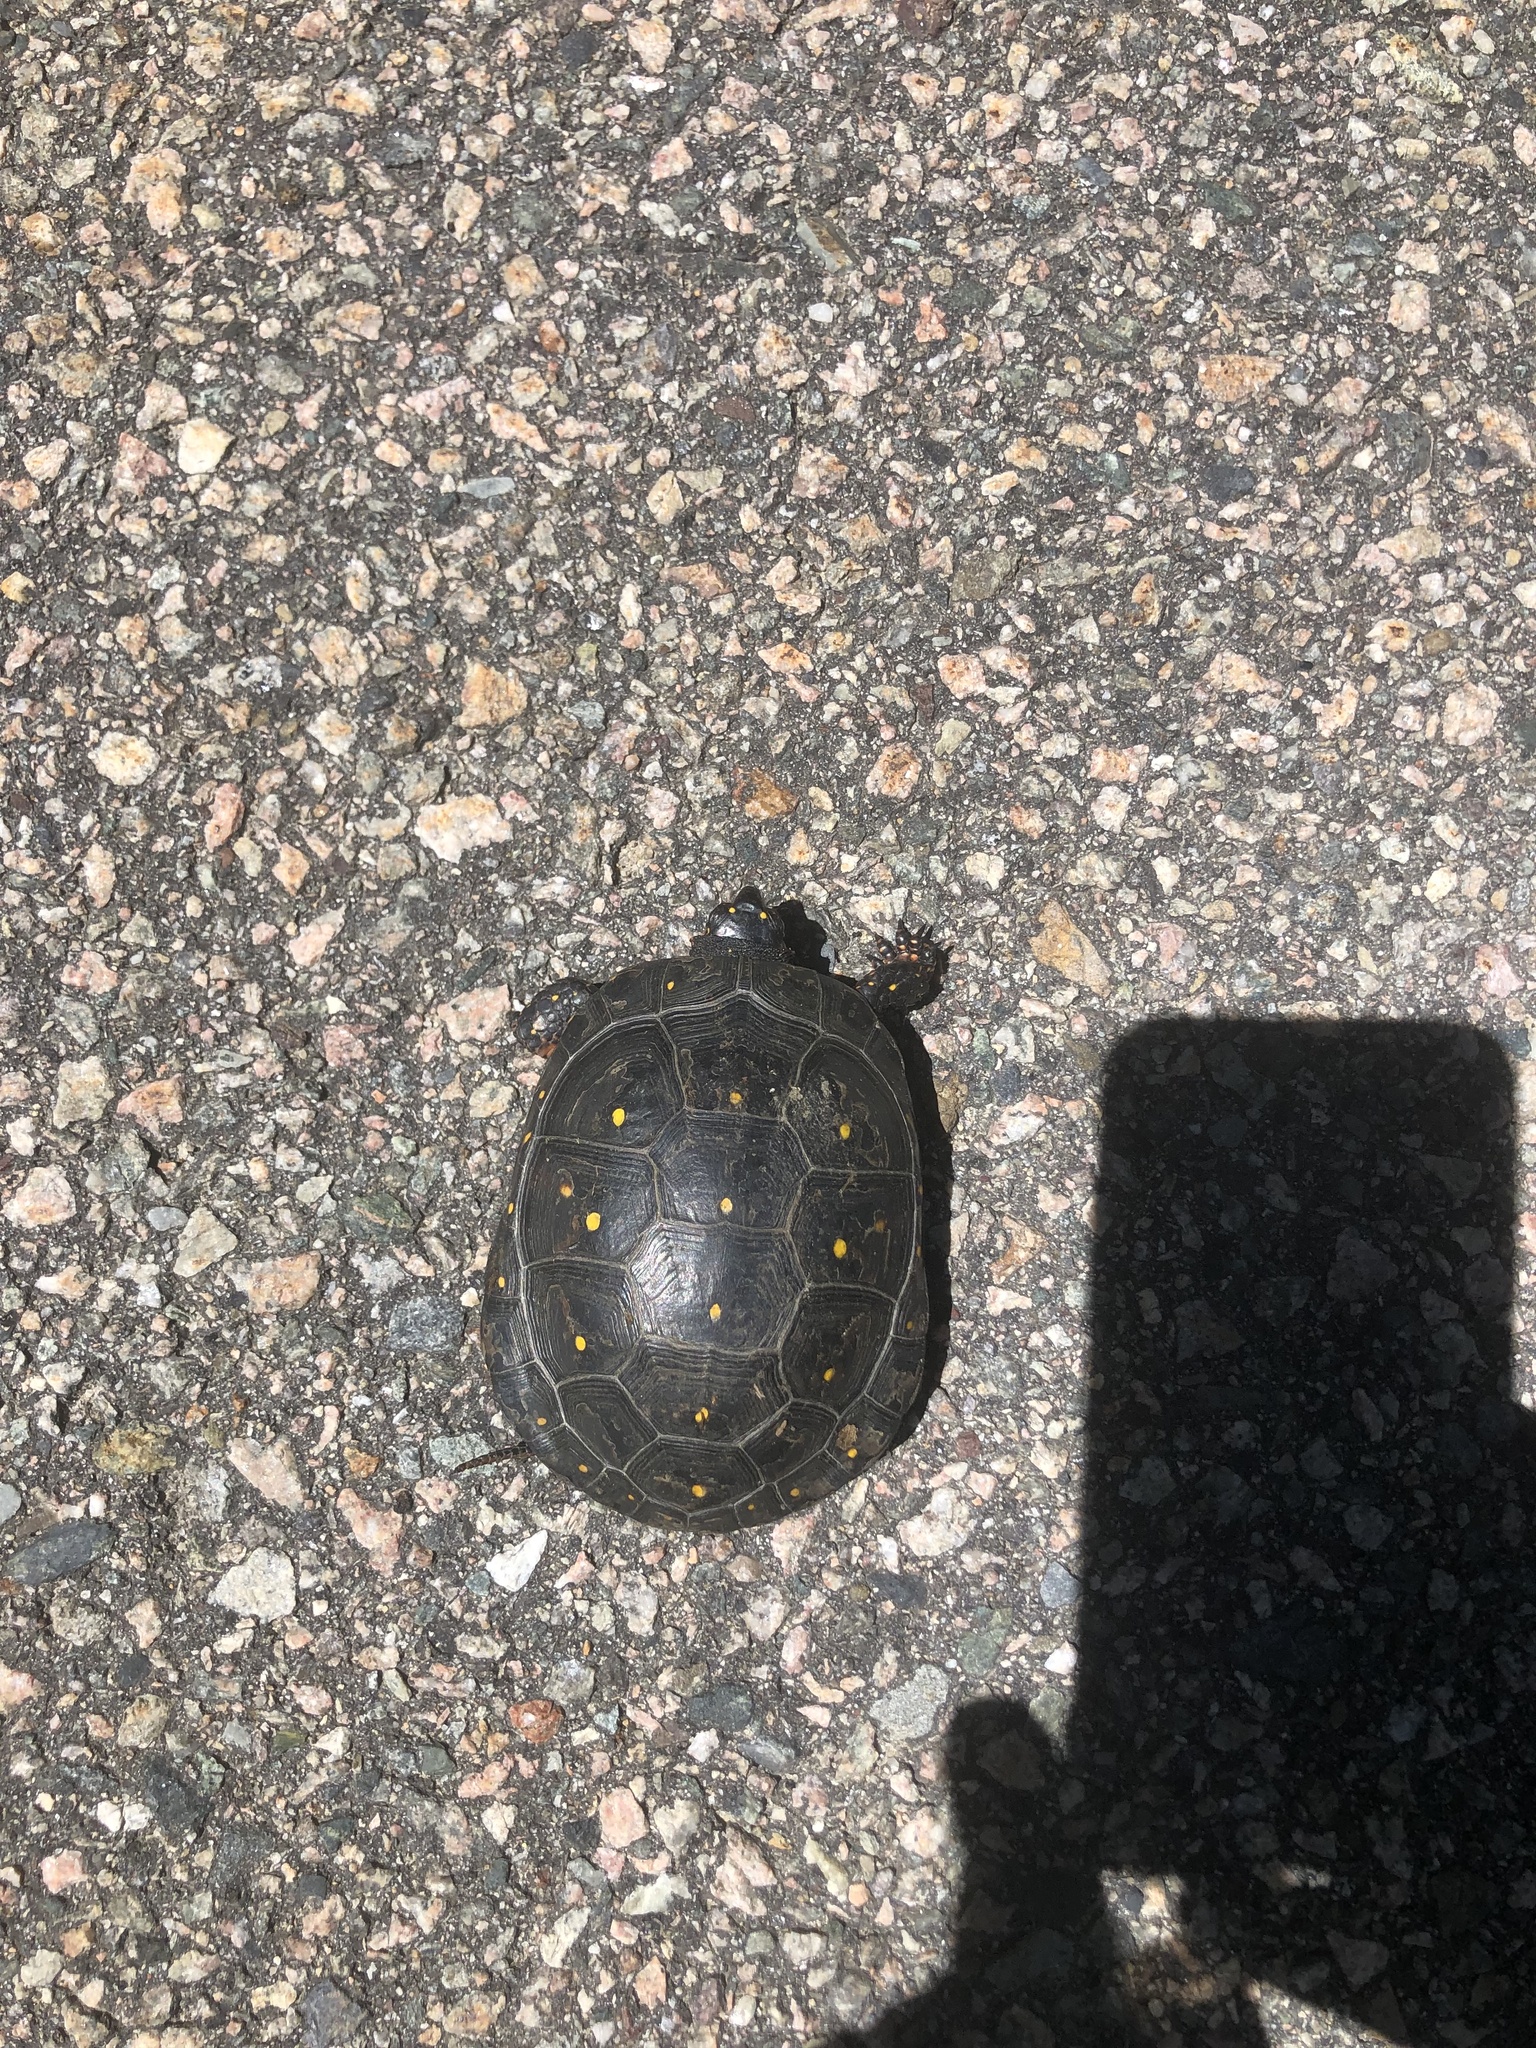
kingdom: Animalia
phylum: Chordata
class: Testudines
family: Emydidae
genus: Clemmys
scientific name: Clemmys guttata
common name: Spotted turtle
